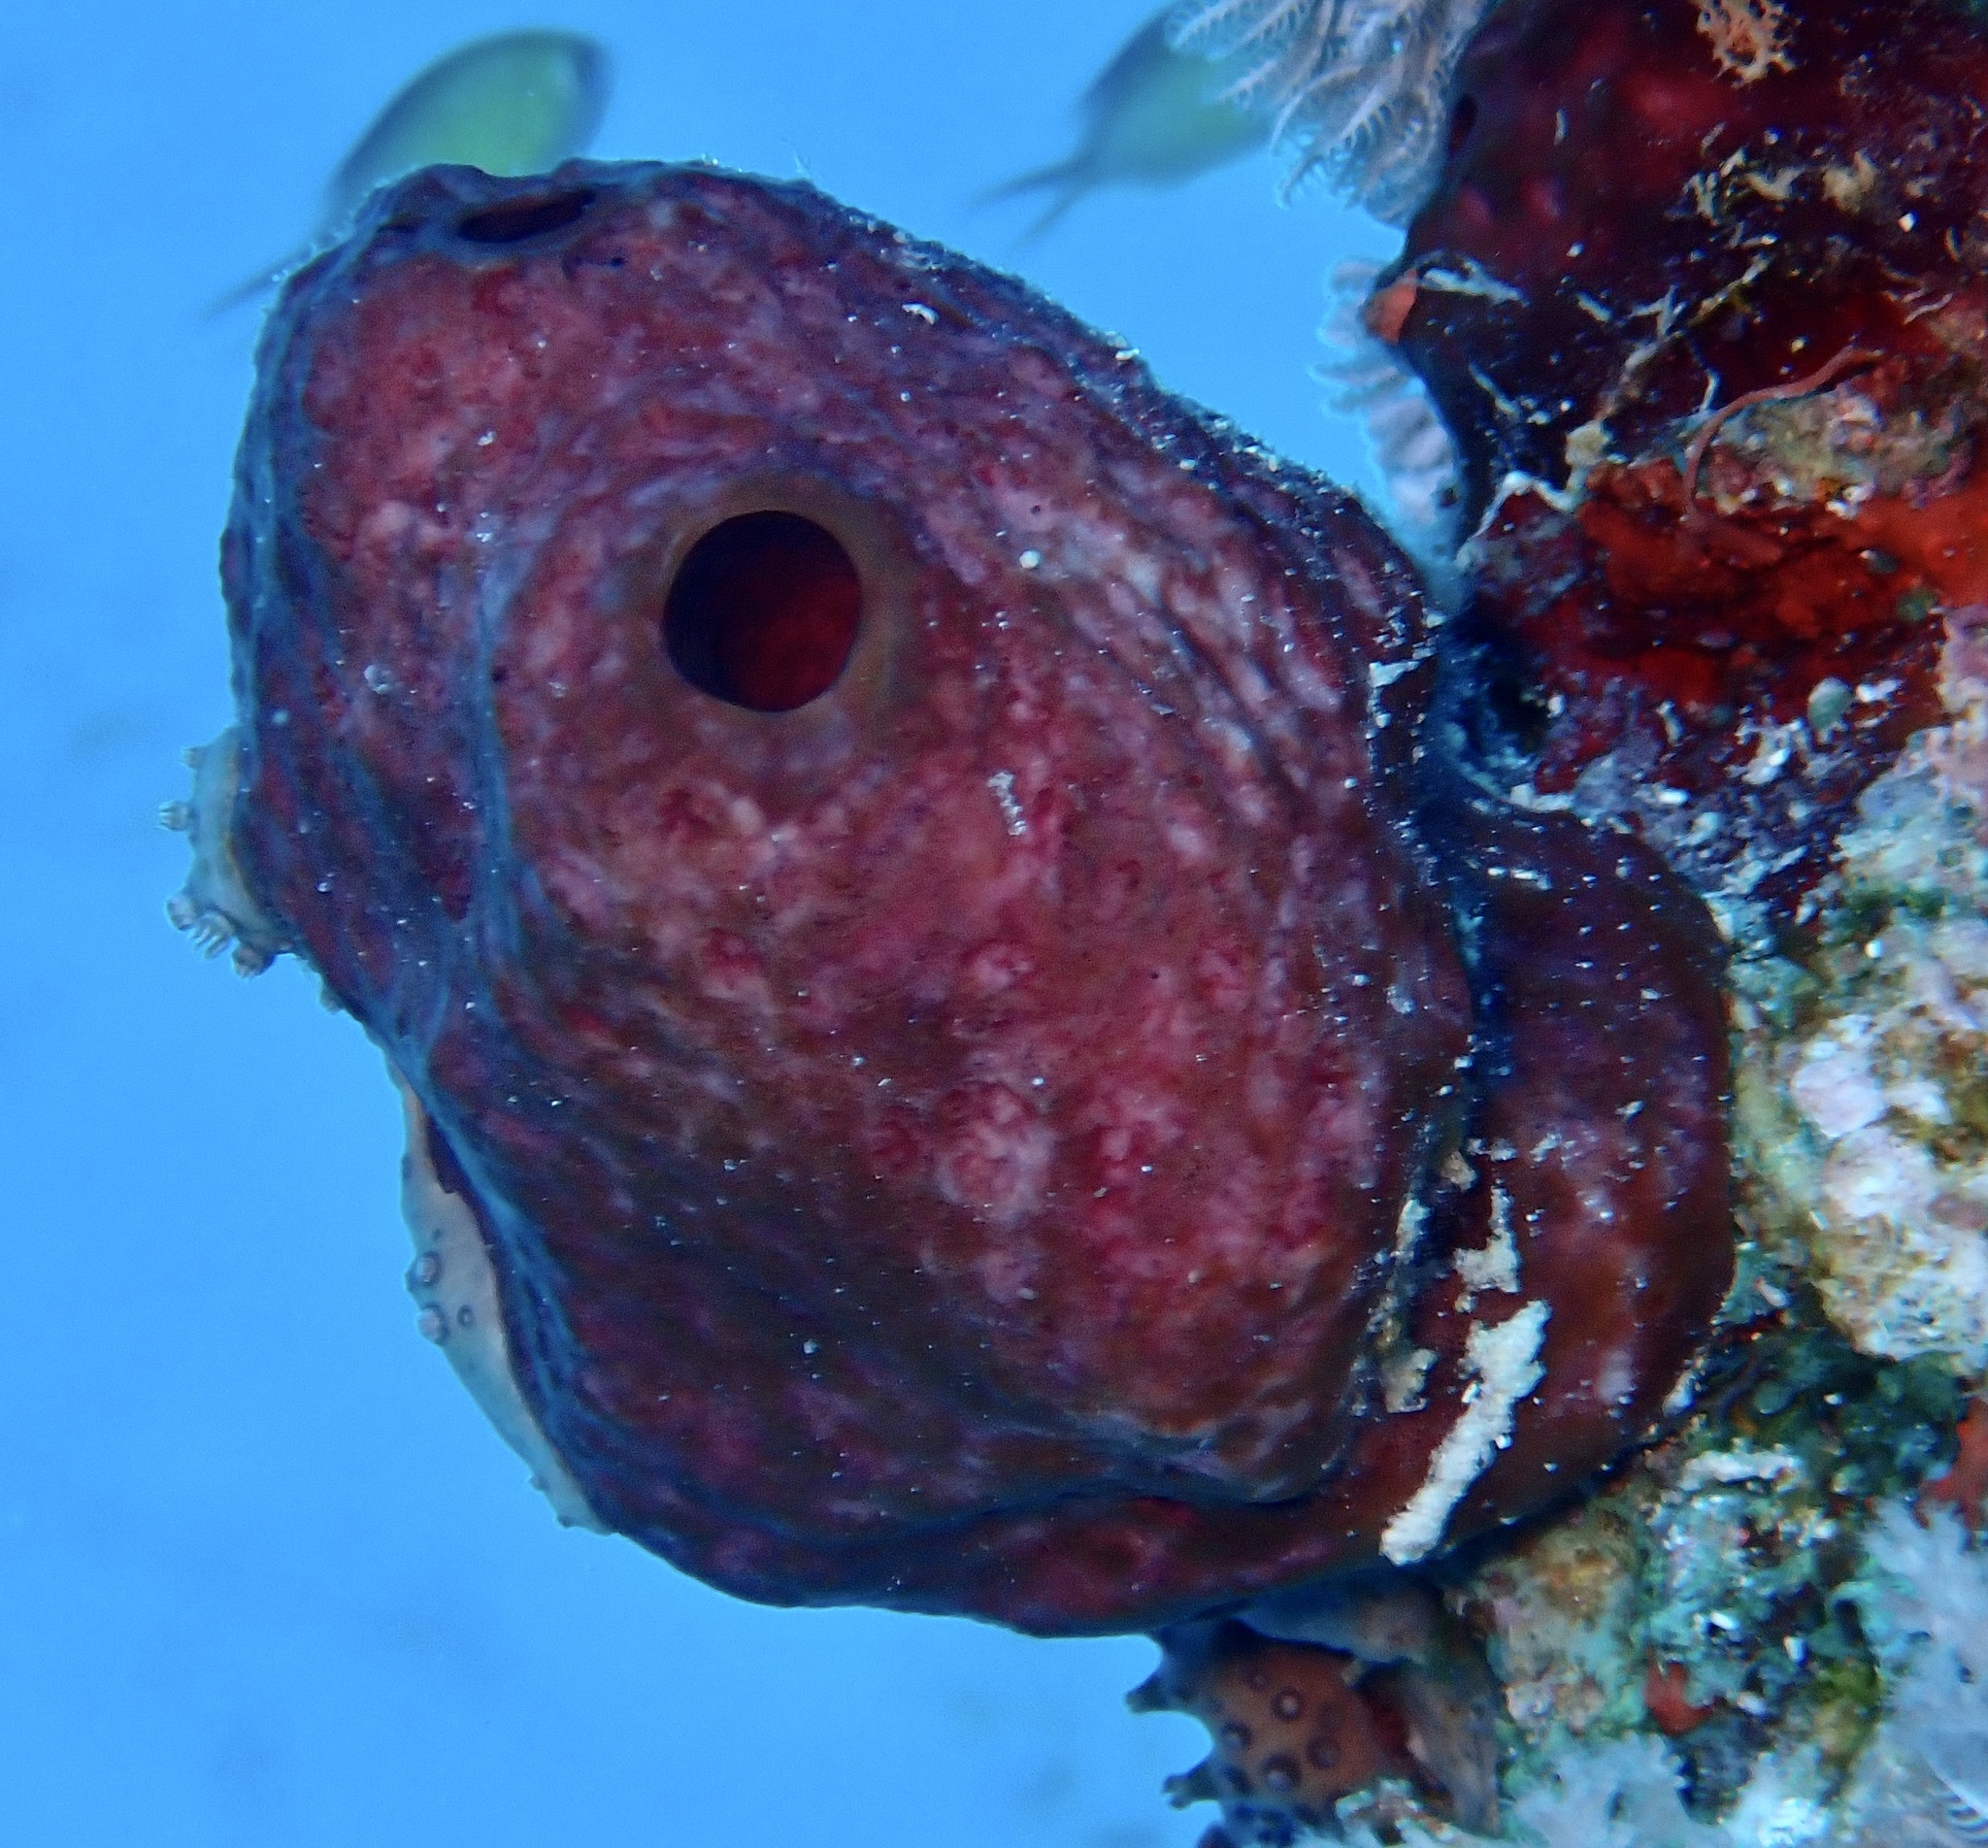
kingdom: Animalia
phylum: Porifera
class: Demospongiae
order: Tetractinellida
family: Theonellidae
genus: Theonella
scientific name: Theonella swinhoei
